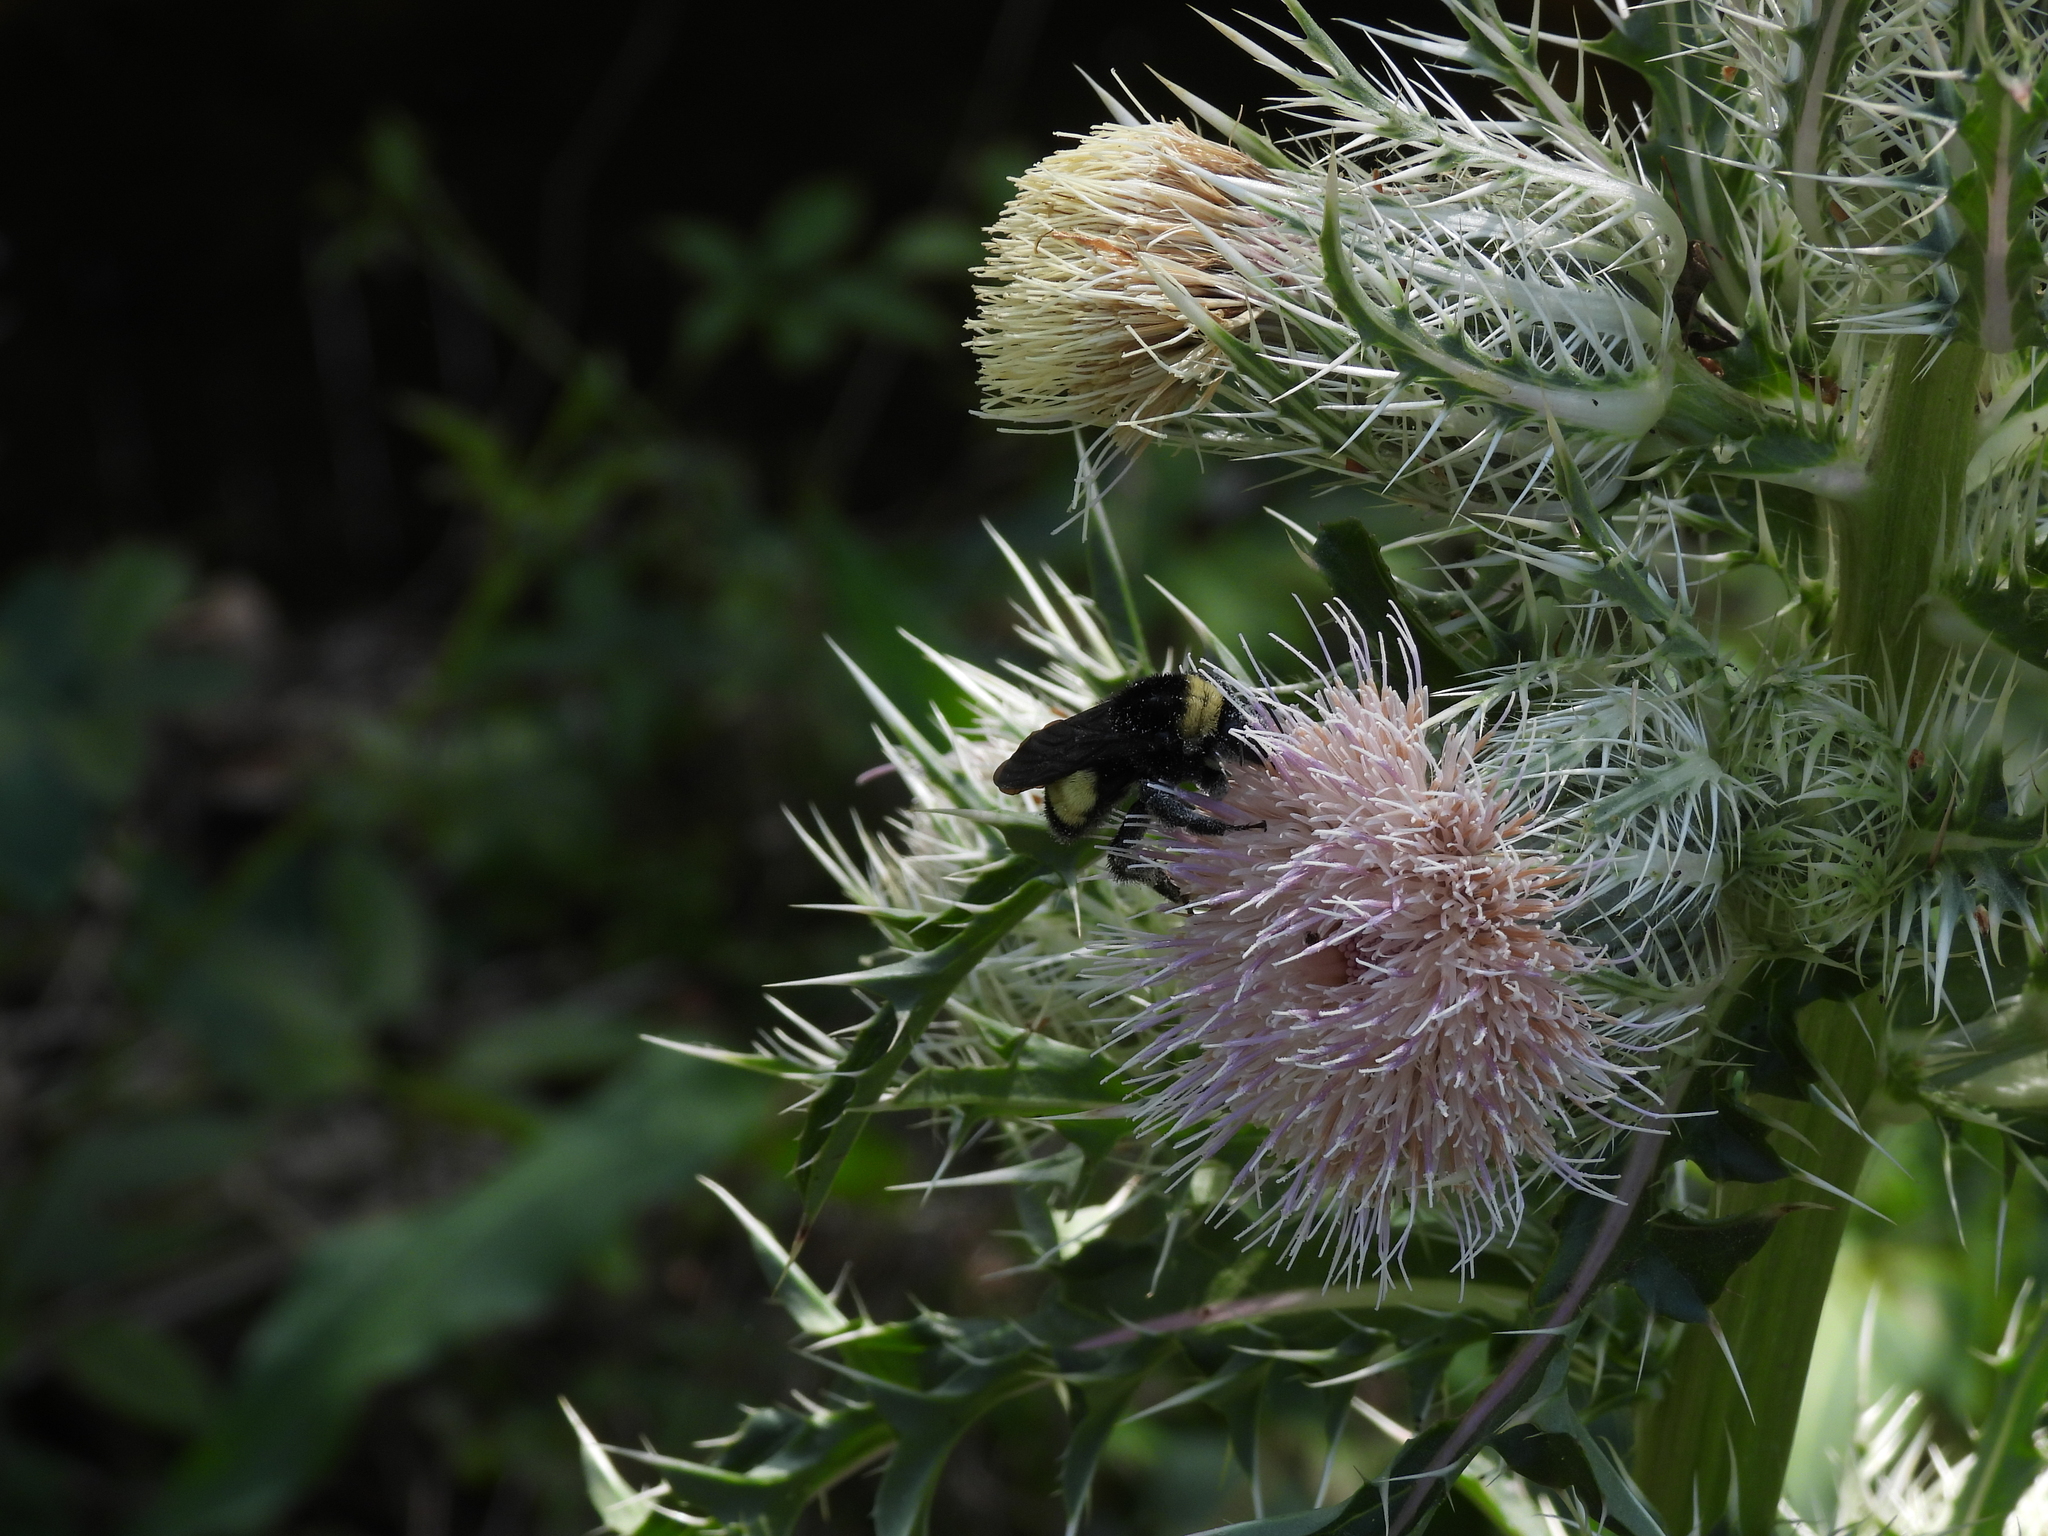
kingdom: Animalia
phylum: Arthropoda
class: Insecta
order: Hymenoptera
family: Apidae
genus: Bombus
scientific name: Bombus pensylvanicus
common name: Bumble bee
